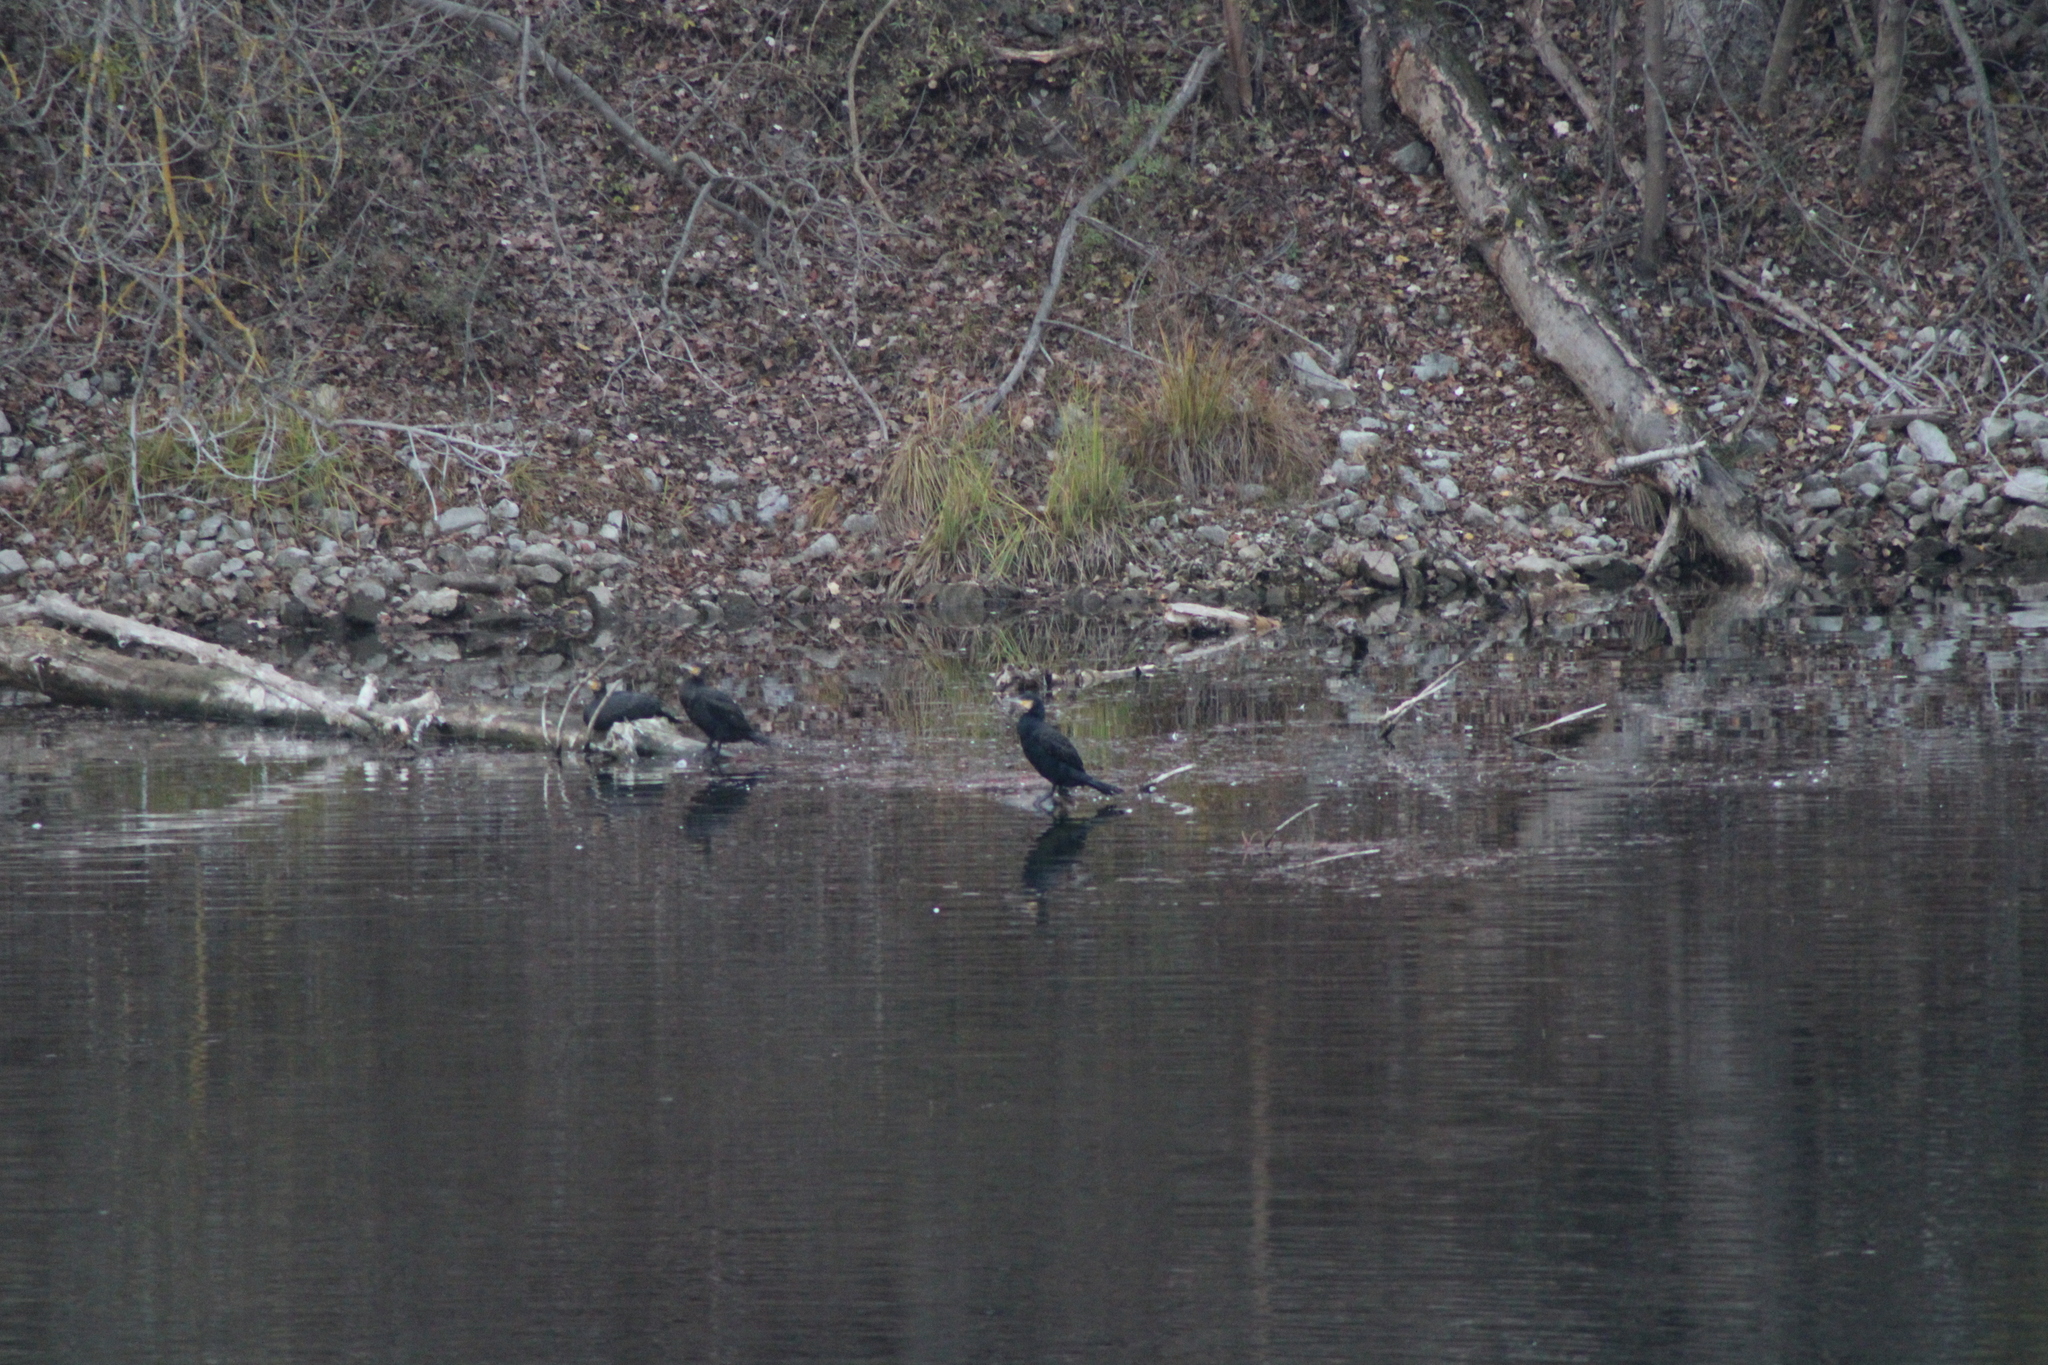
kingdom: Animalia
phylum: Chordata
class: Aves
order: Suliformes
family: Phalacrocoracidae
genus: Phalacrocorax
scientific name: Phalacrocorax carbo
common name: Great cormorant
